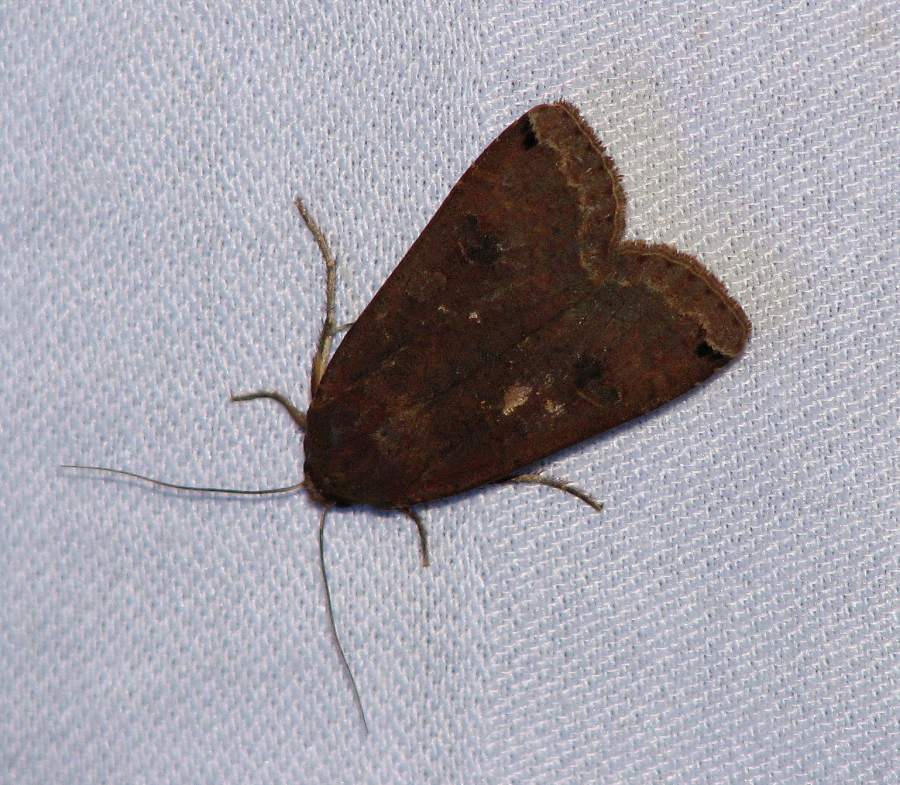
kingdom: Animalia
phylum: Arthropoda
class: Insecta
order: Lepidoptera
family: Noctuidae
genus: Noctua
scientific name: Noctua pronuba
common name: Large yellow underwing
